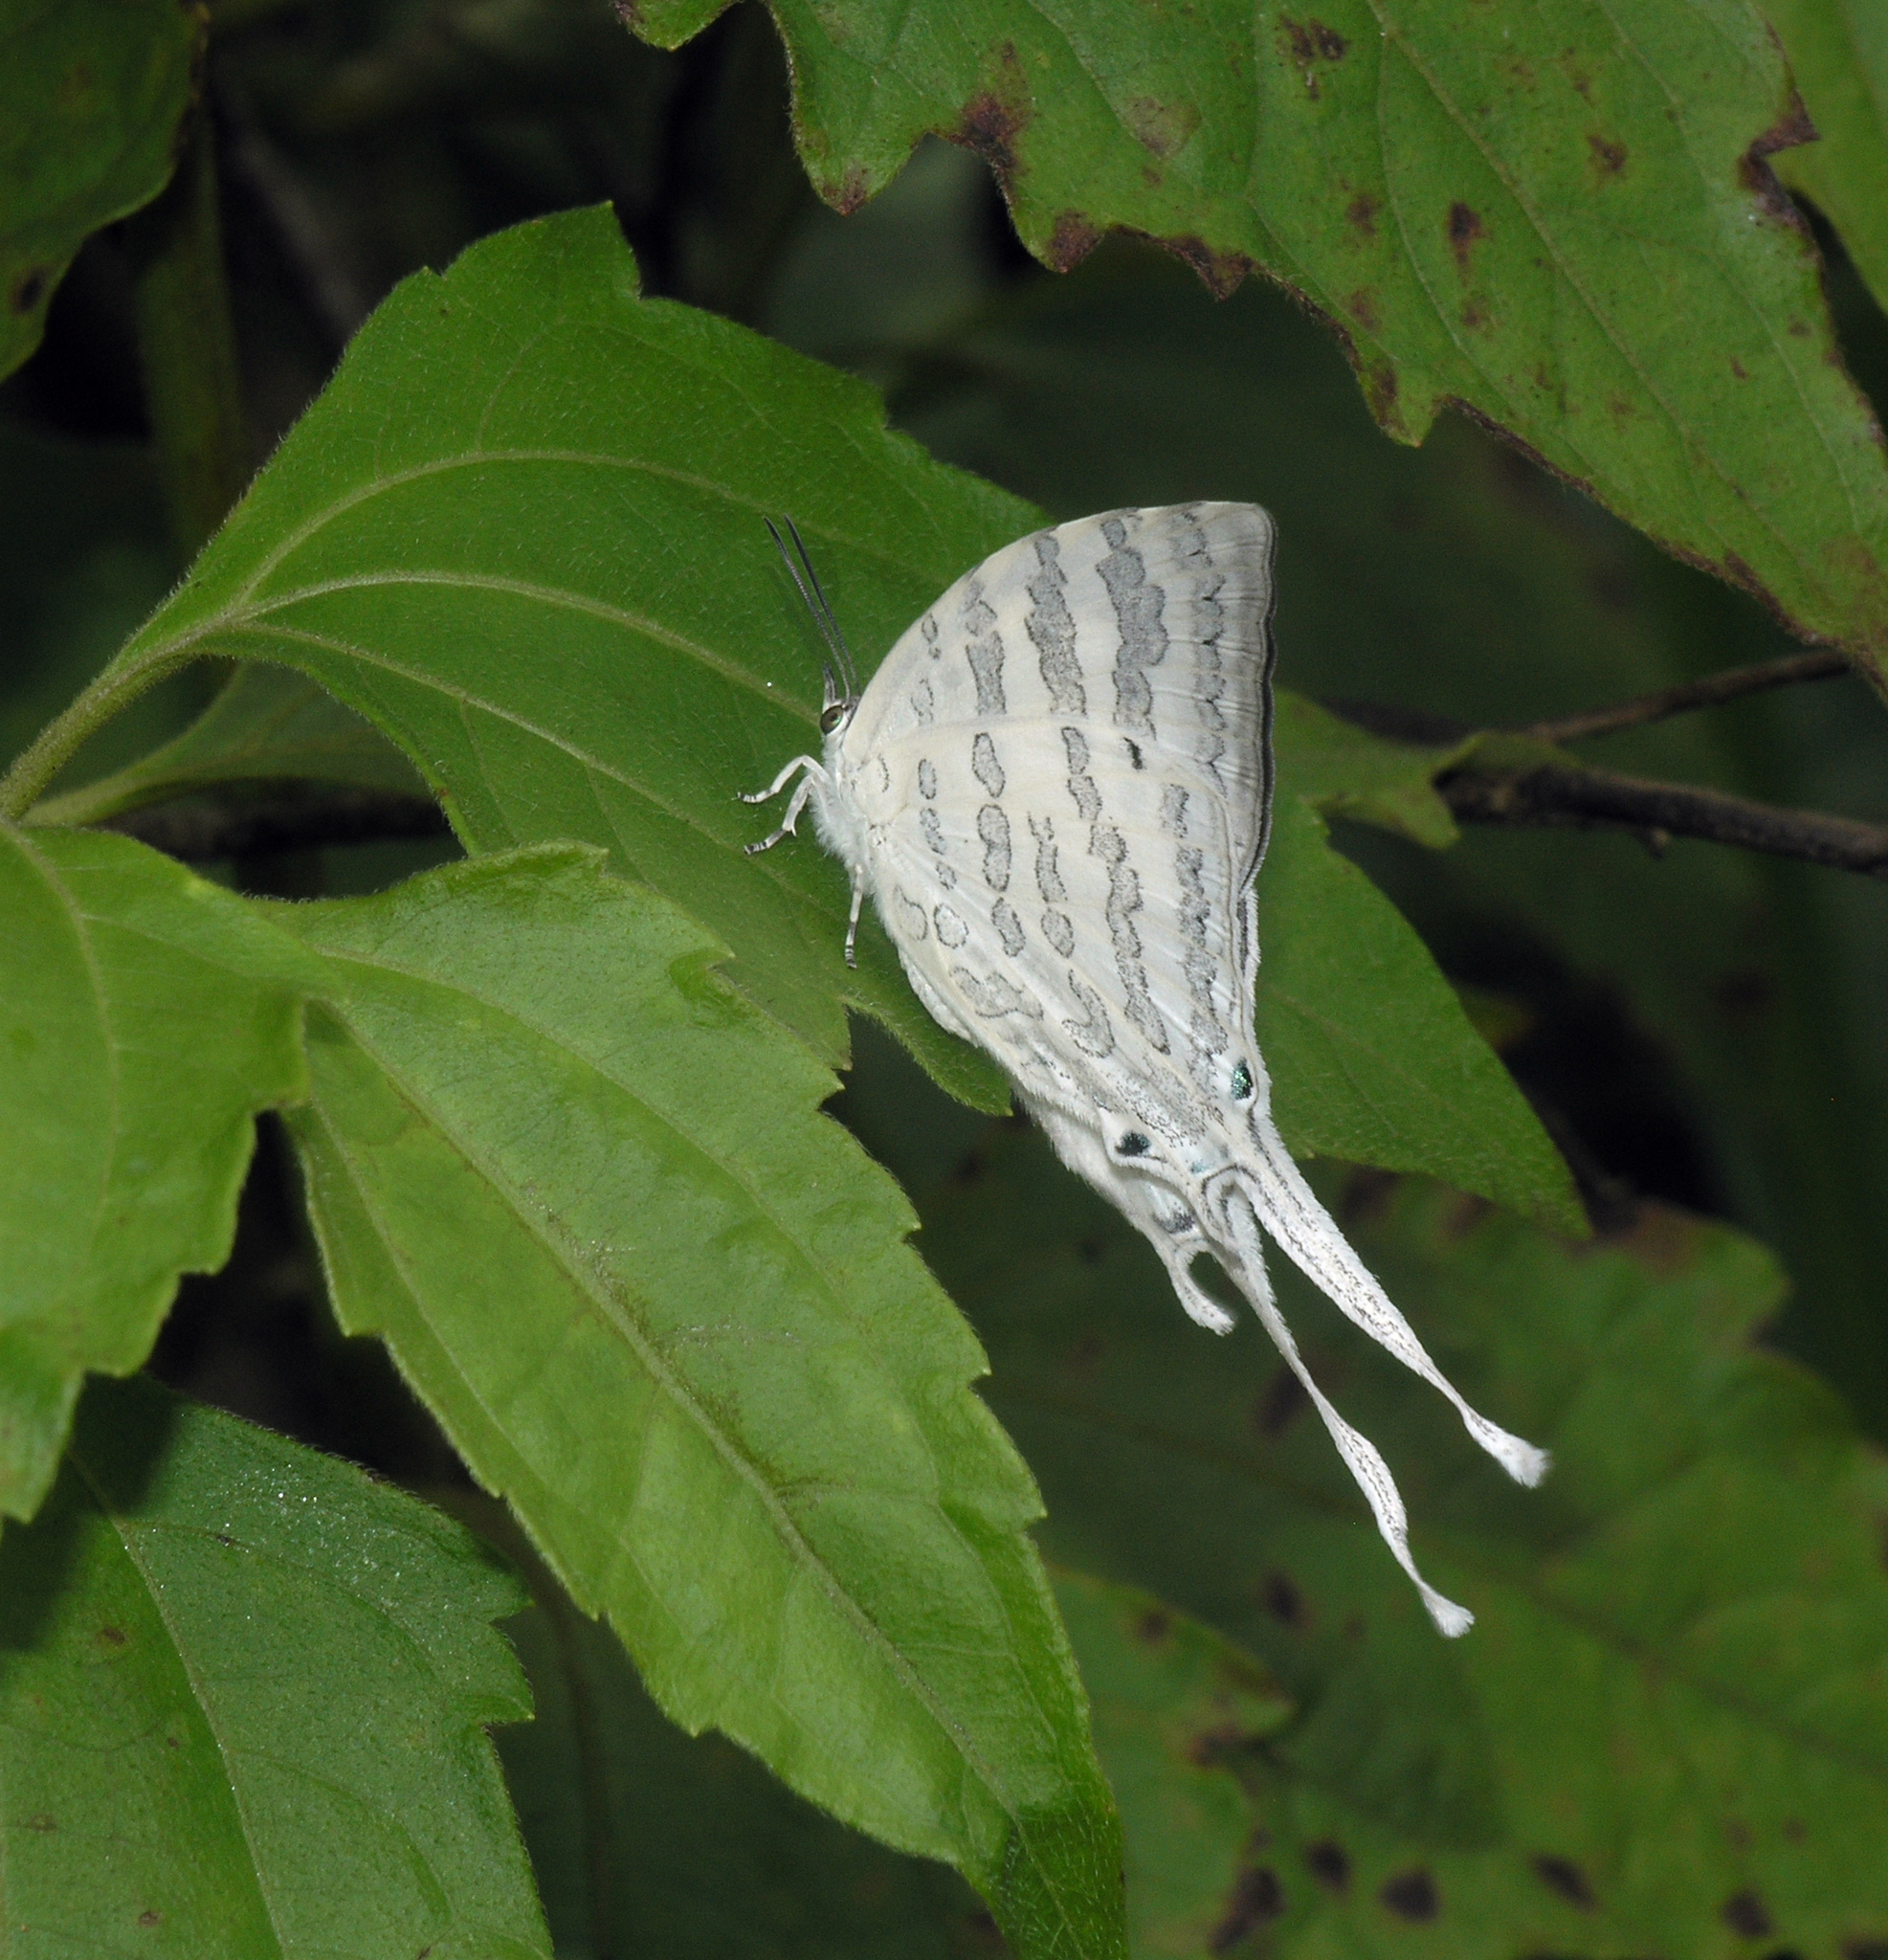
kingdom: Animalia
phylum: Arthropoda
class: Insecta
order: Lepidoptera
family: Lycaenidae
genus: Neomyrina
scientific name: Neomyrina hiemalis
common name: White imperial
